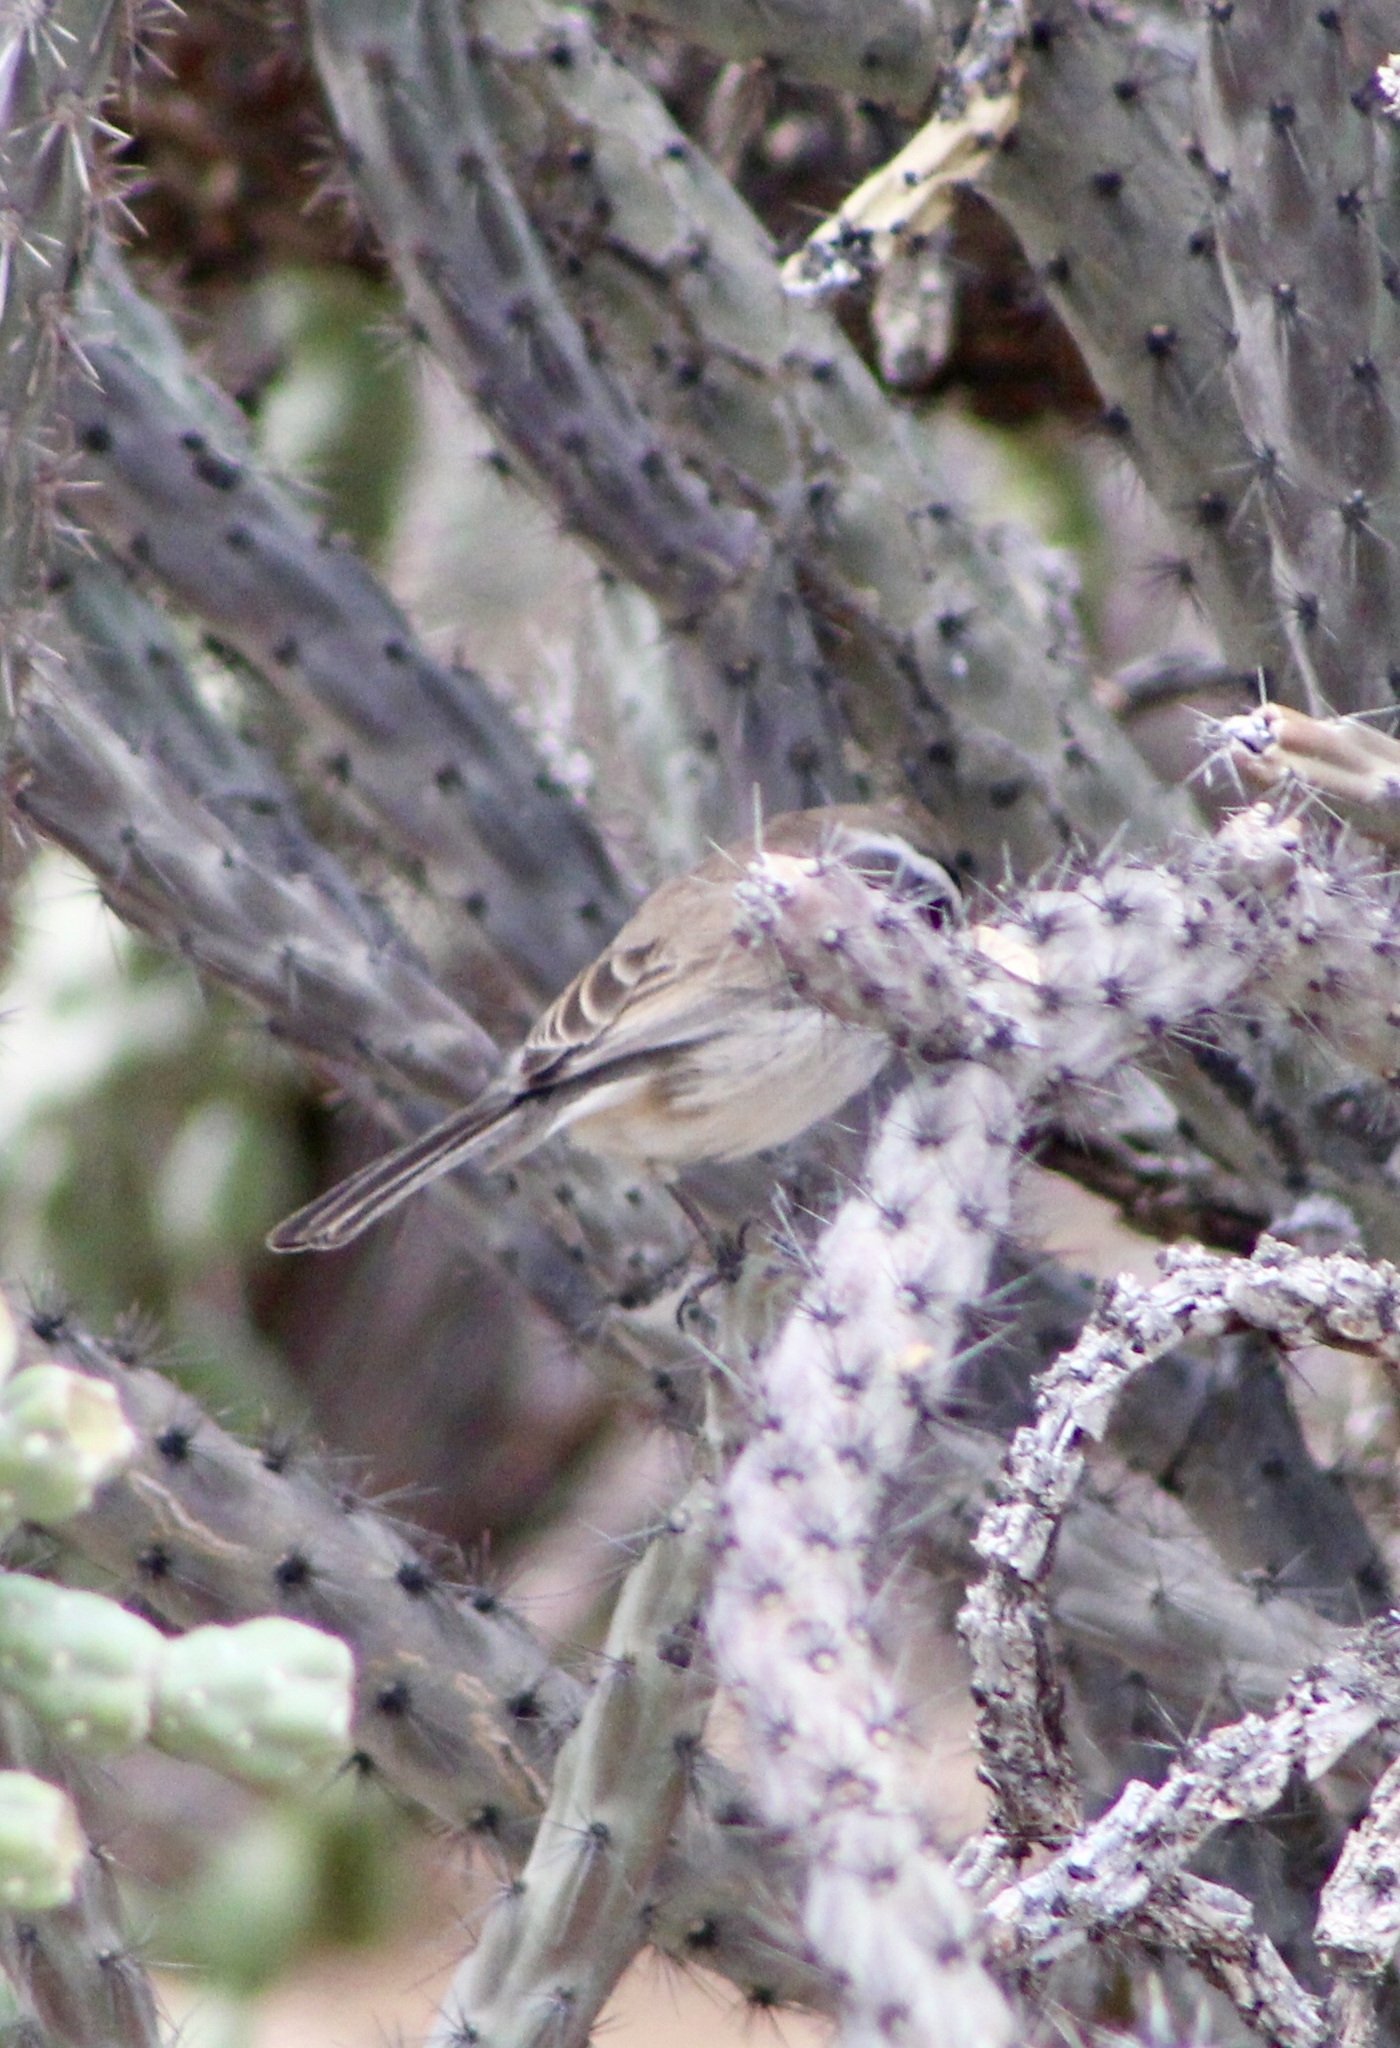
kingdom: Animalia
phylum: Chordata
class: Aves
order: Passeriformes
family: Passerellidae
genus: Amphispiza
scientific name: Amphispiza bilineata
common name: Black-throated sparrow
